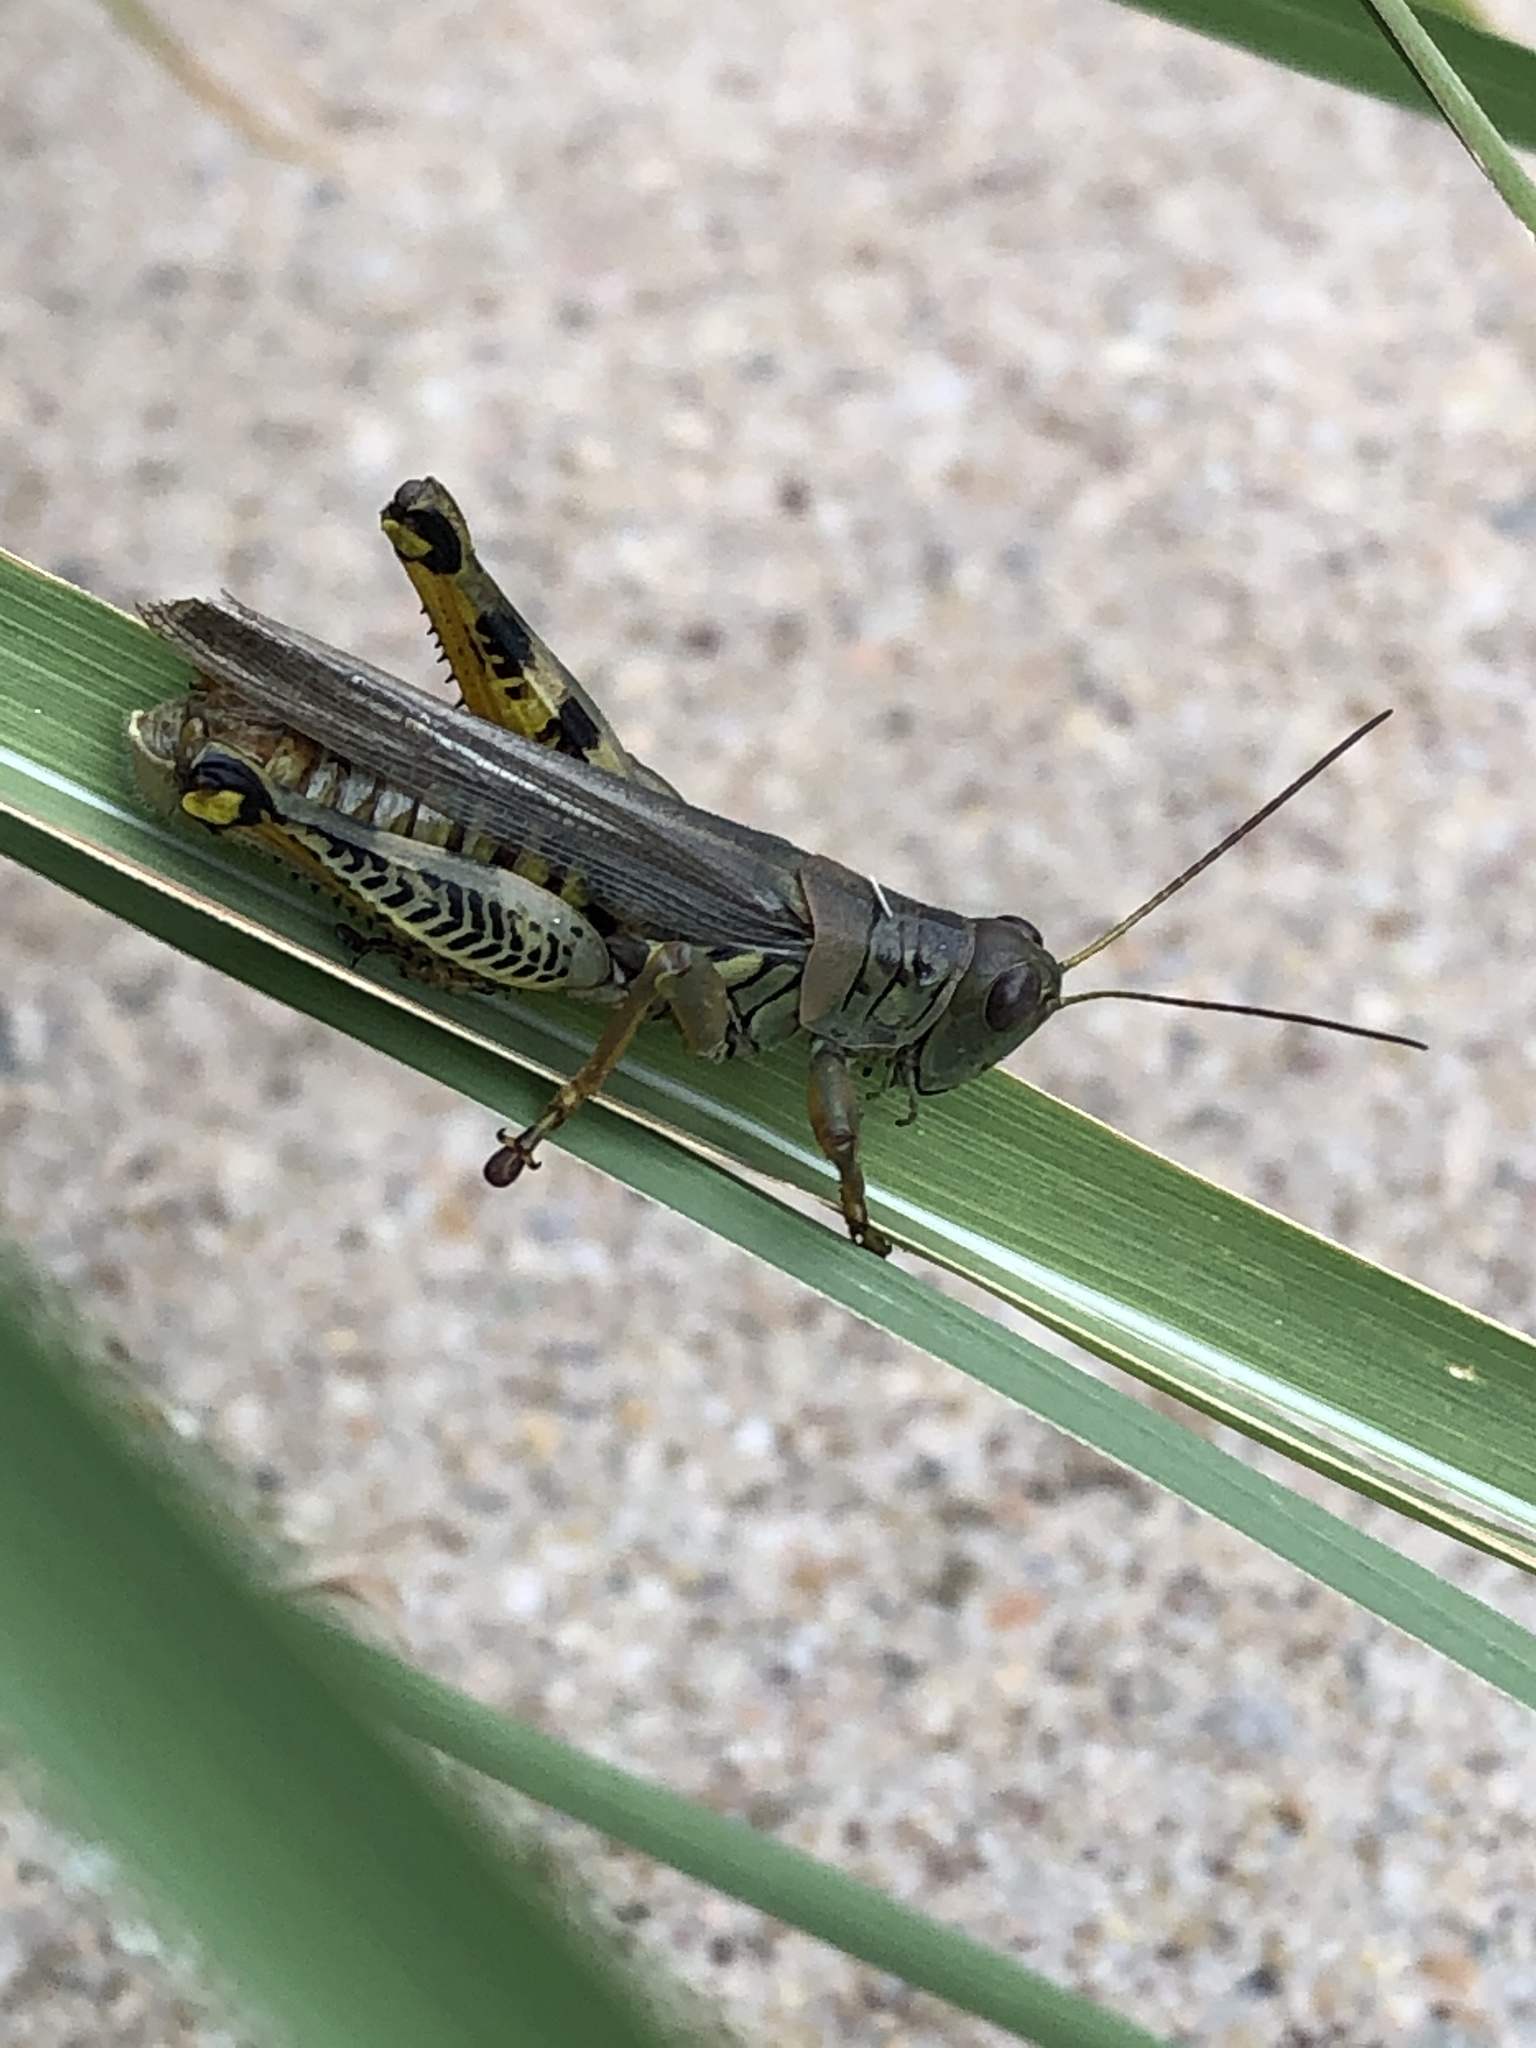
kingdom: Animalia
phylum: Arthropoda
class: Insecta
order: Orthoptera
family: Acrididae
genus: Melanoplus
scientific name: Melanoplus differentialis
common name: Differential grasshopper
